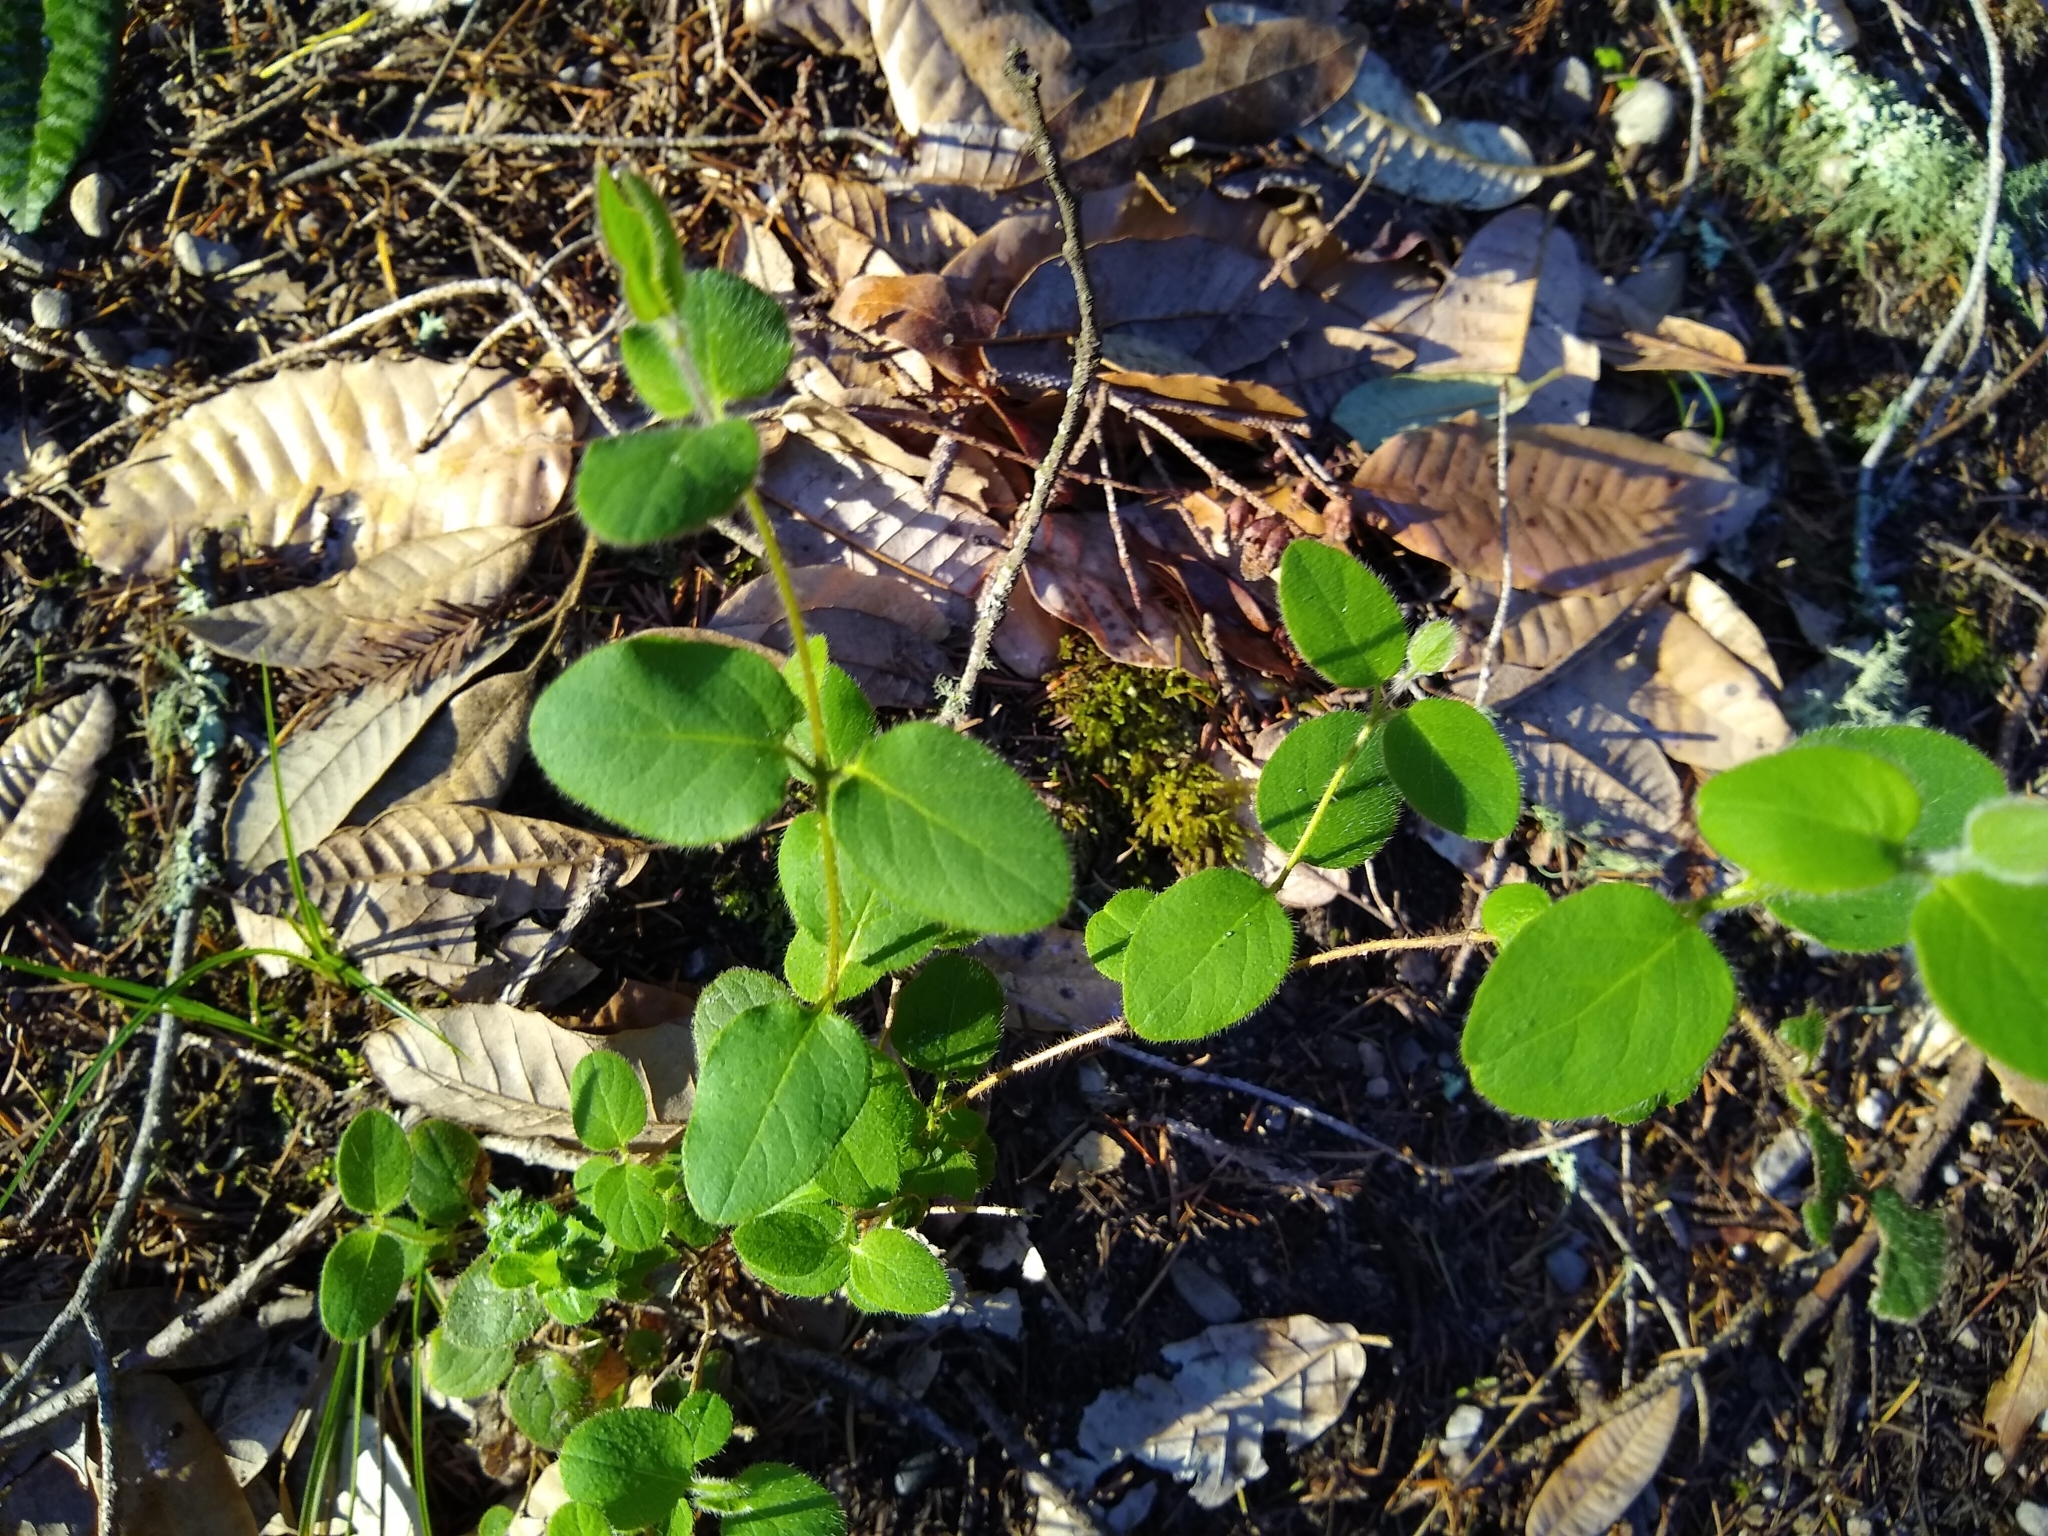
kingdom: Plantae
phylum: Tracheophyta
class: Magnoliopsida
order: Dipsacales
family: Caprifoliaceae
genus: Lonicera
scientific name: Lonicera hispidula
